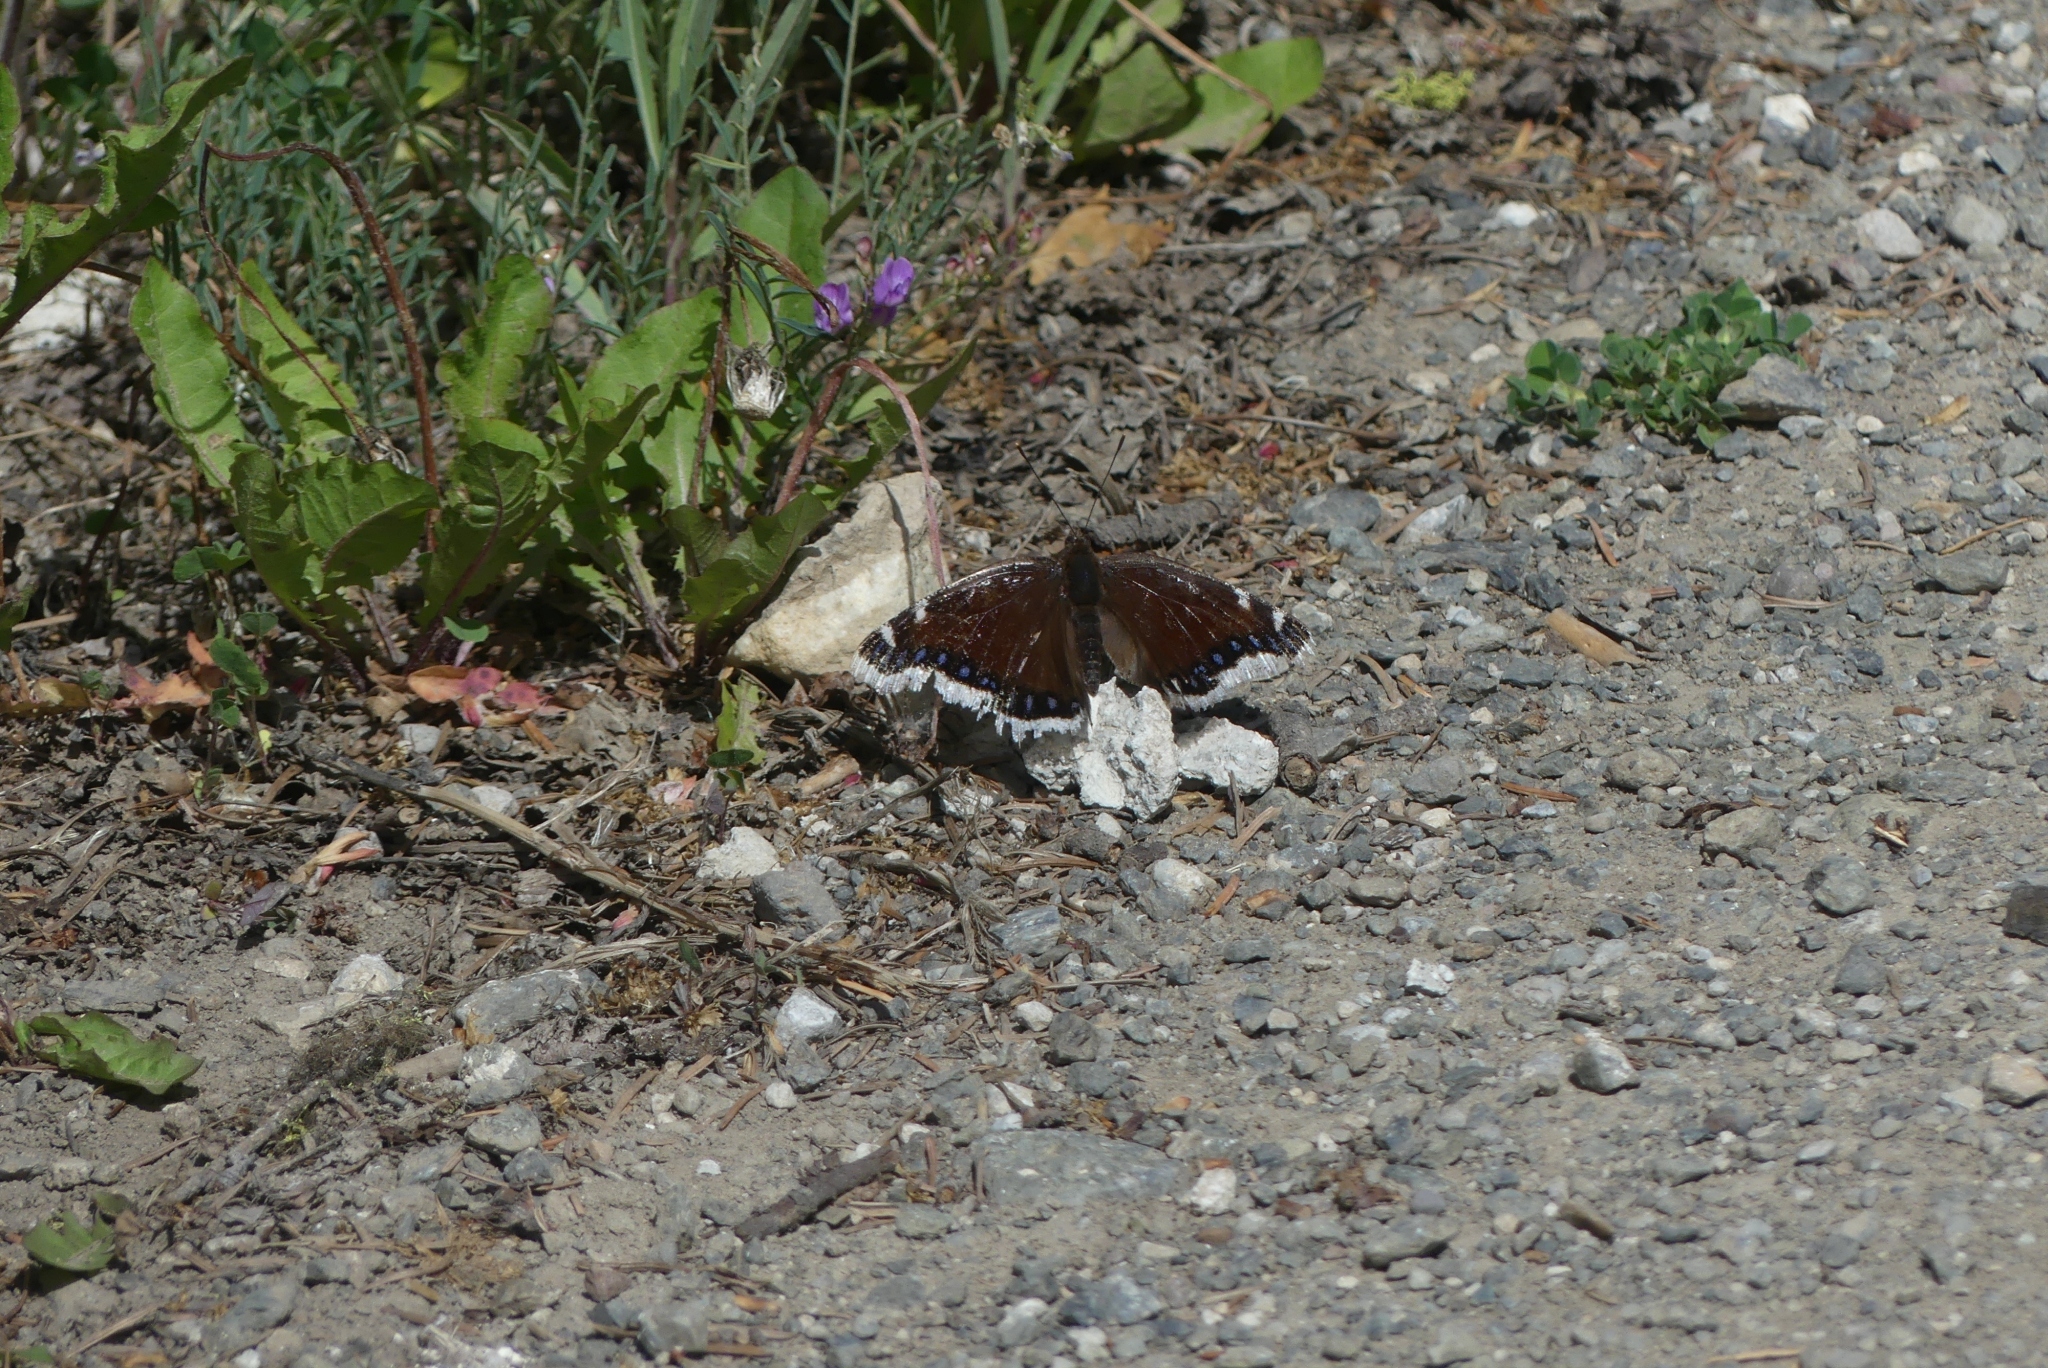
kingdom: Animalia
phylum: Arthropoda
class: Insecta
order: Lepidoptera
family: Nymphalidae
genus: Nymphalis
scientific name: Nymphalis antiopa
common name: Camberwell beauty
